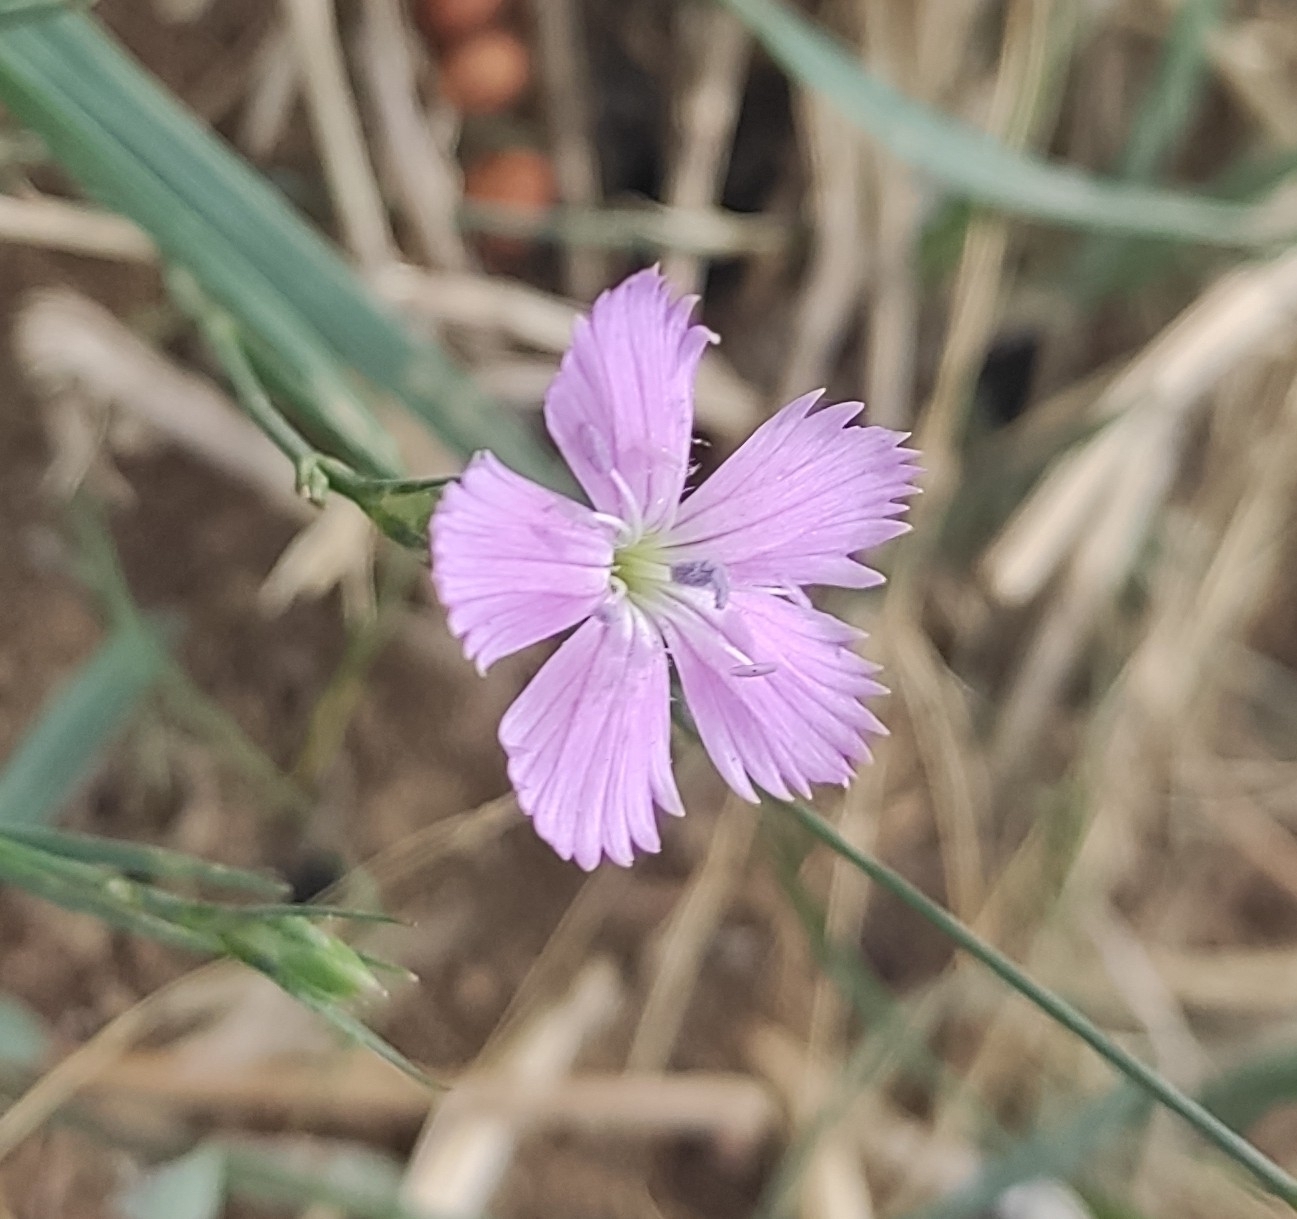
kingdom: Plantae
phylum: Tracheophyta
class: Magnoliopsida
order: Caryophyllales
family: Caryophyllaceae
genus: Dianthus
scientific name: Dianthus pallens
